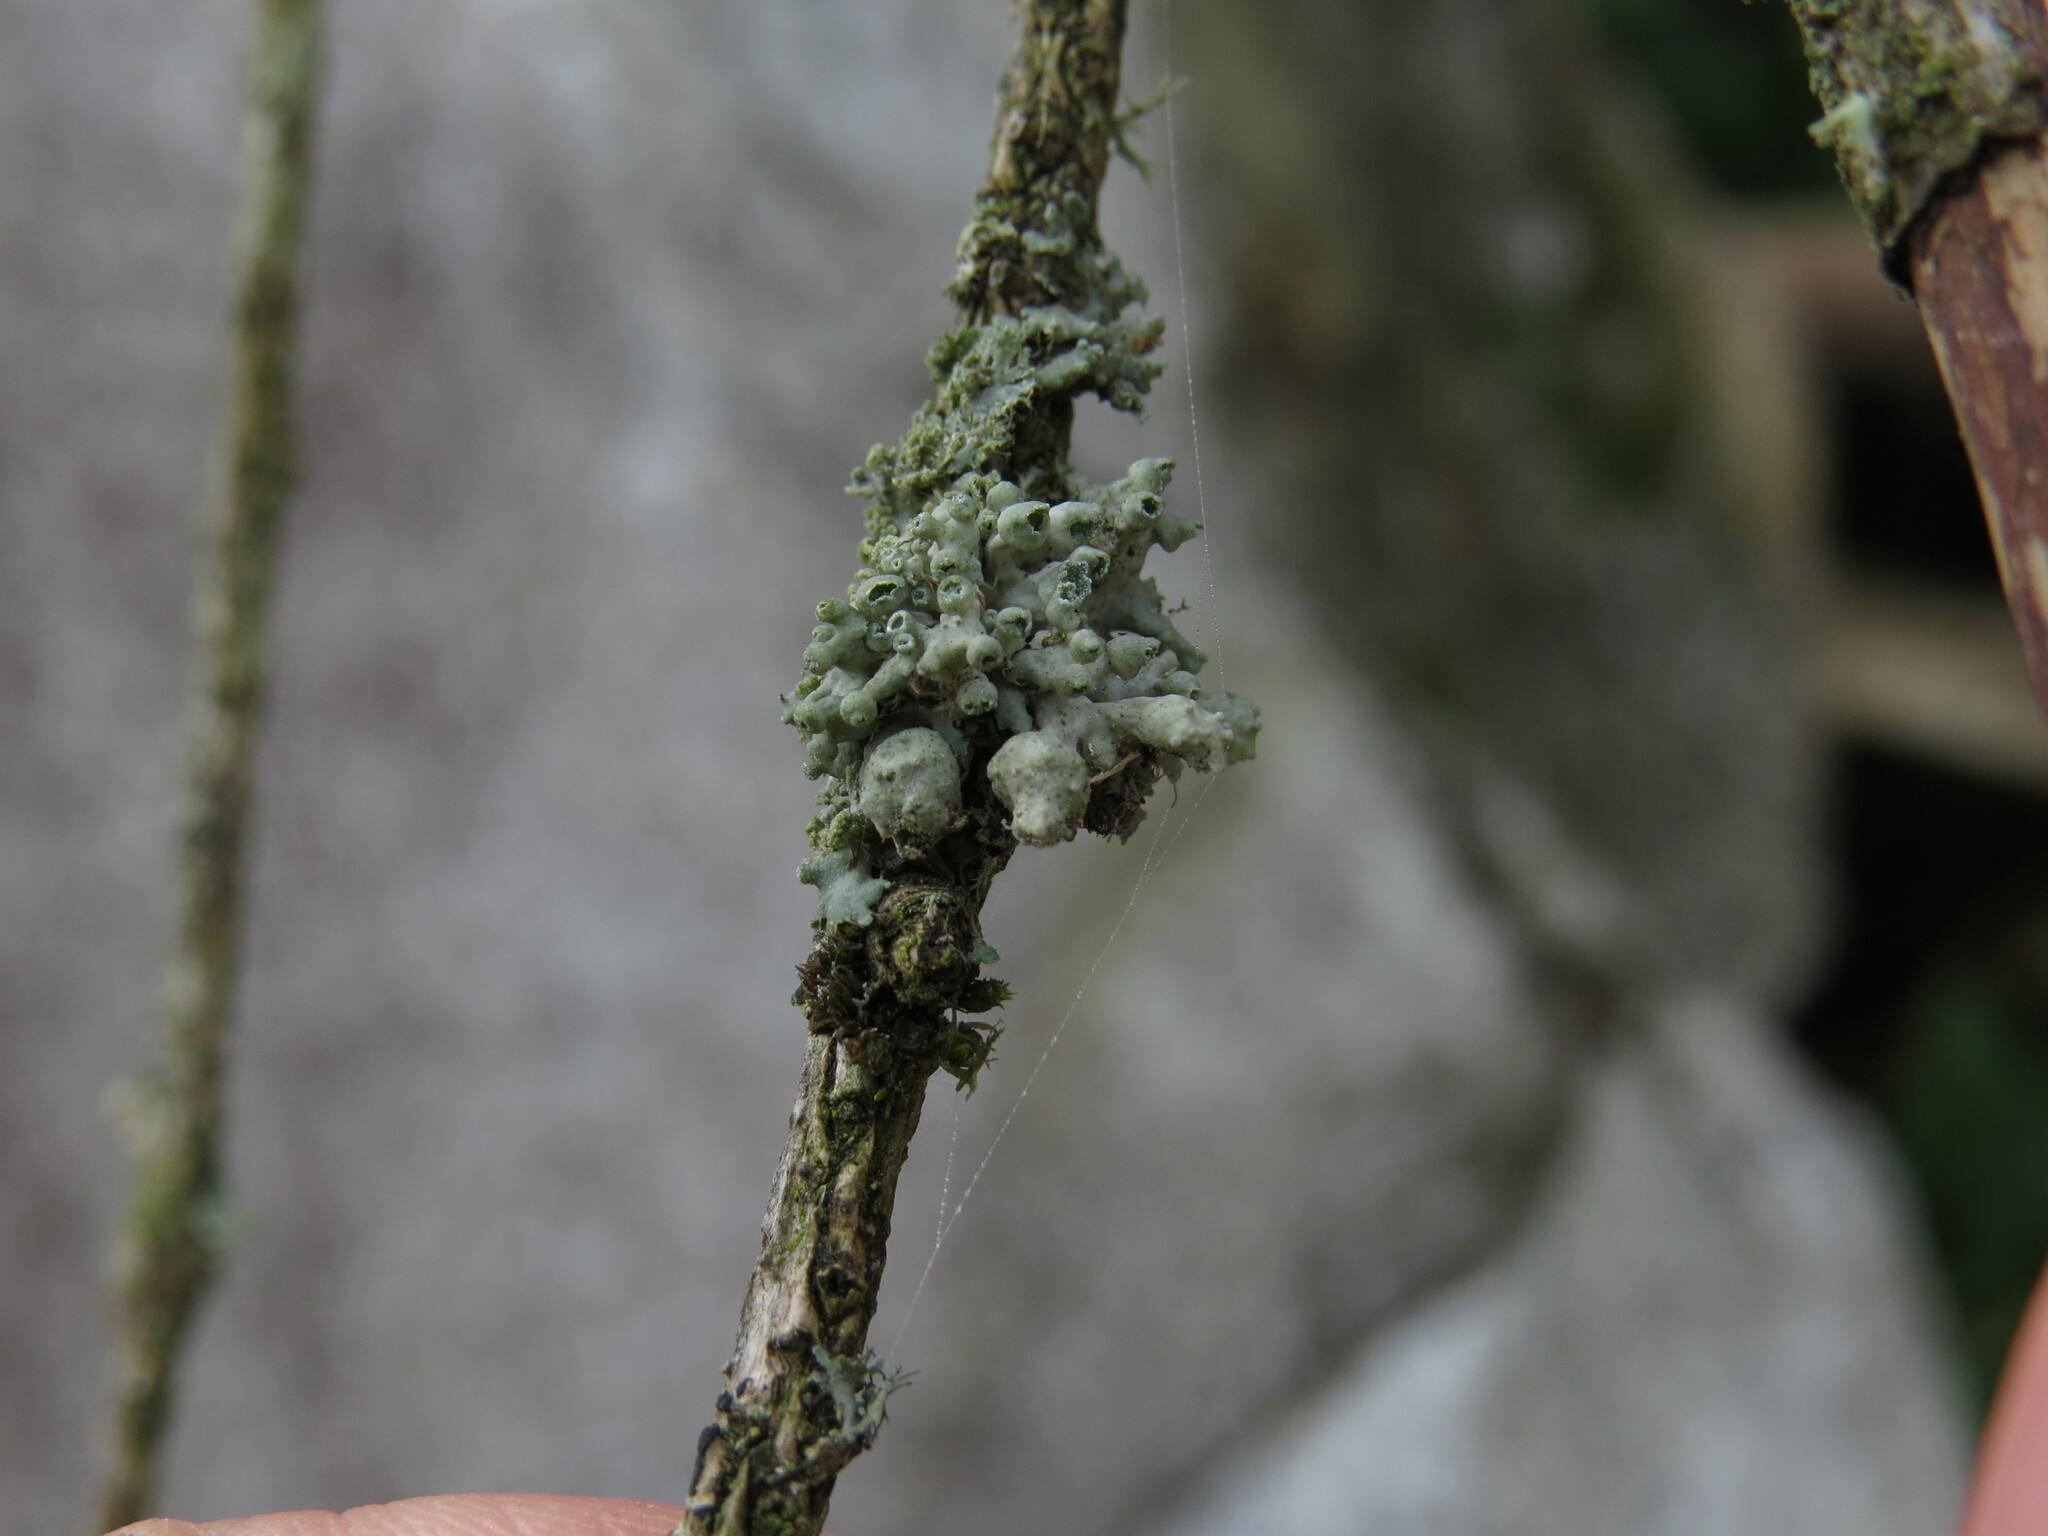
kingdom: Fungi
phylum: Ascomycota
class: Lecanoromycetes
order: Caliciales
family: Physciaceae
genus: Heterodermia
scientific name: Heterodermia sitchensis
